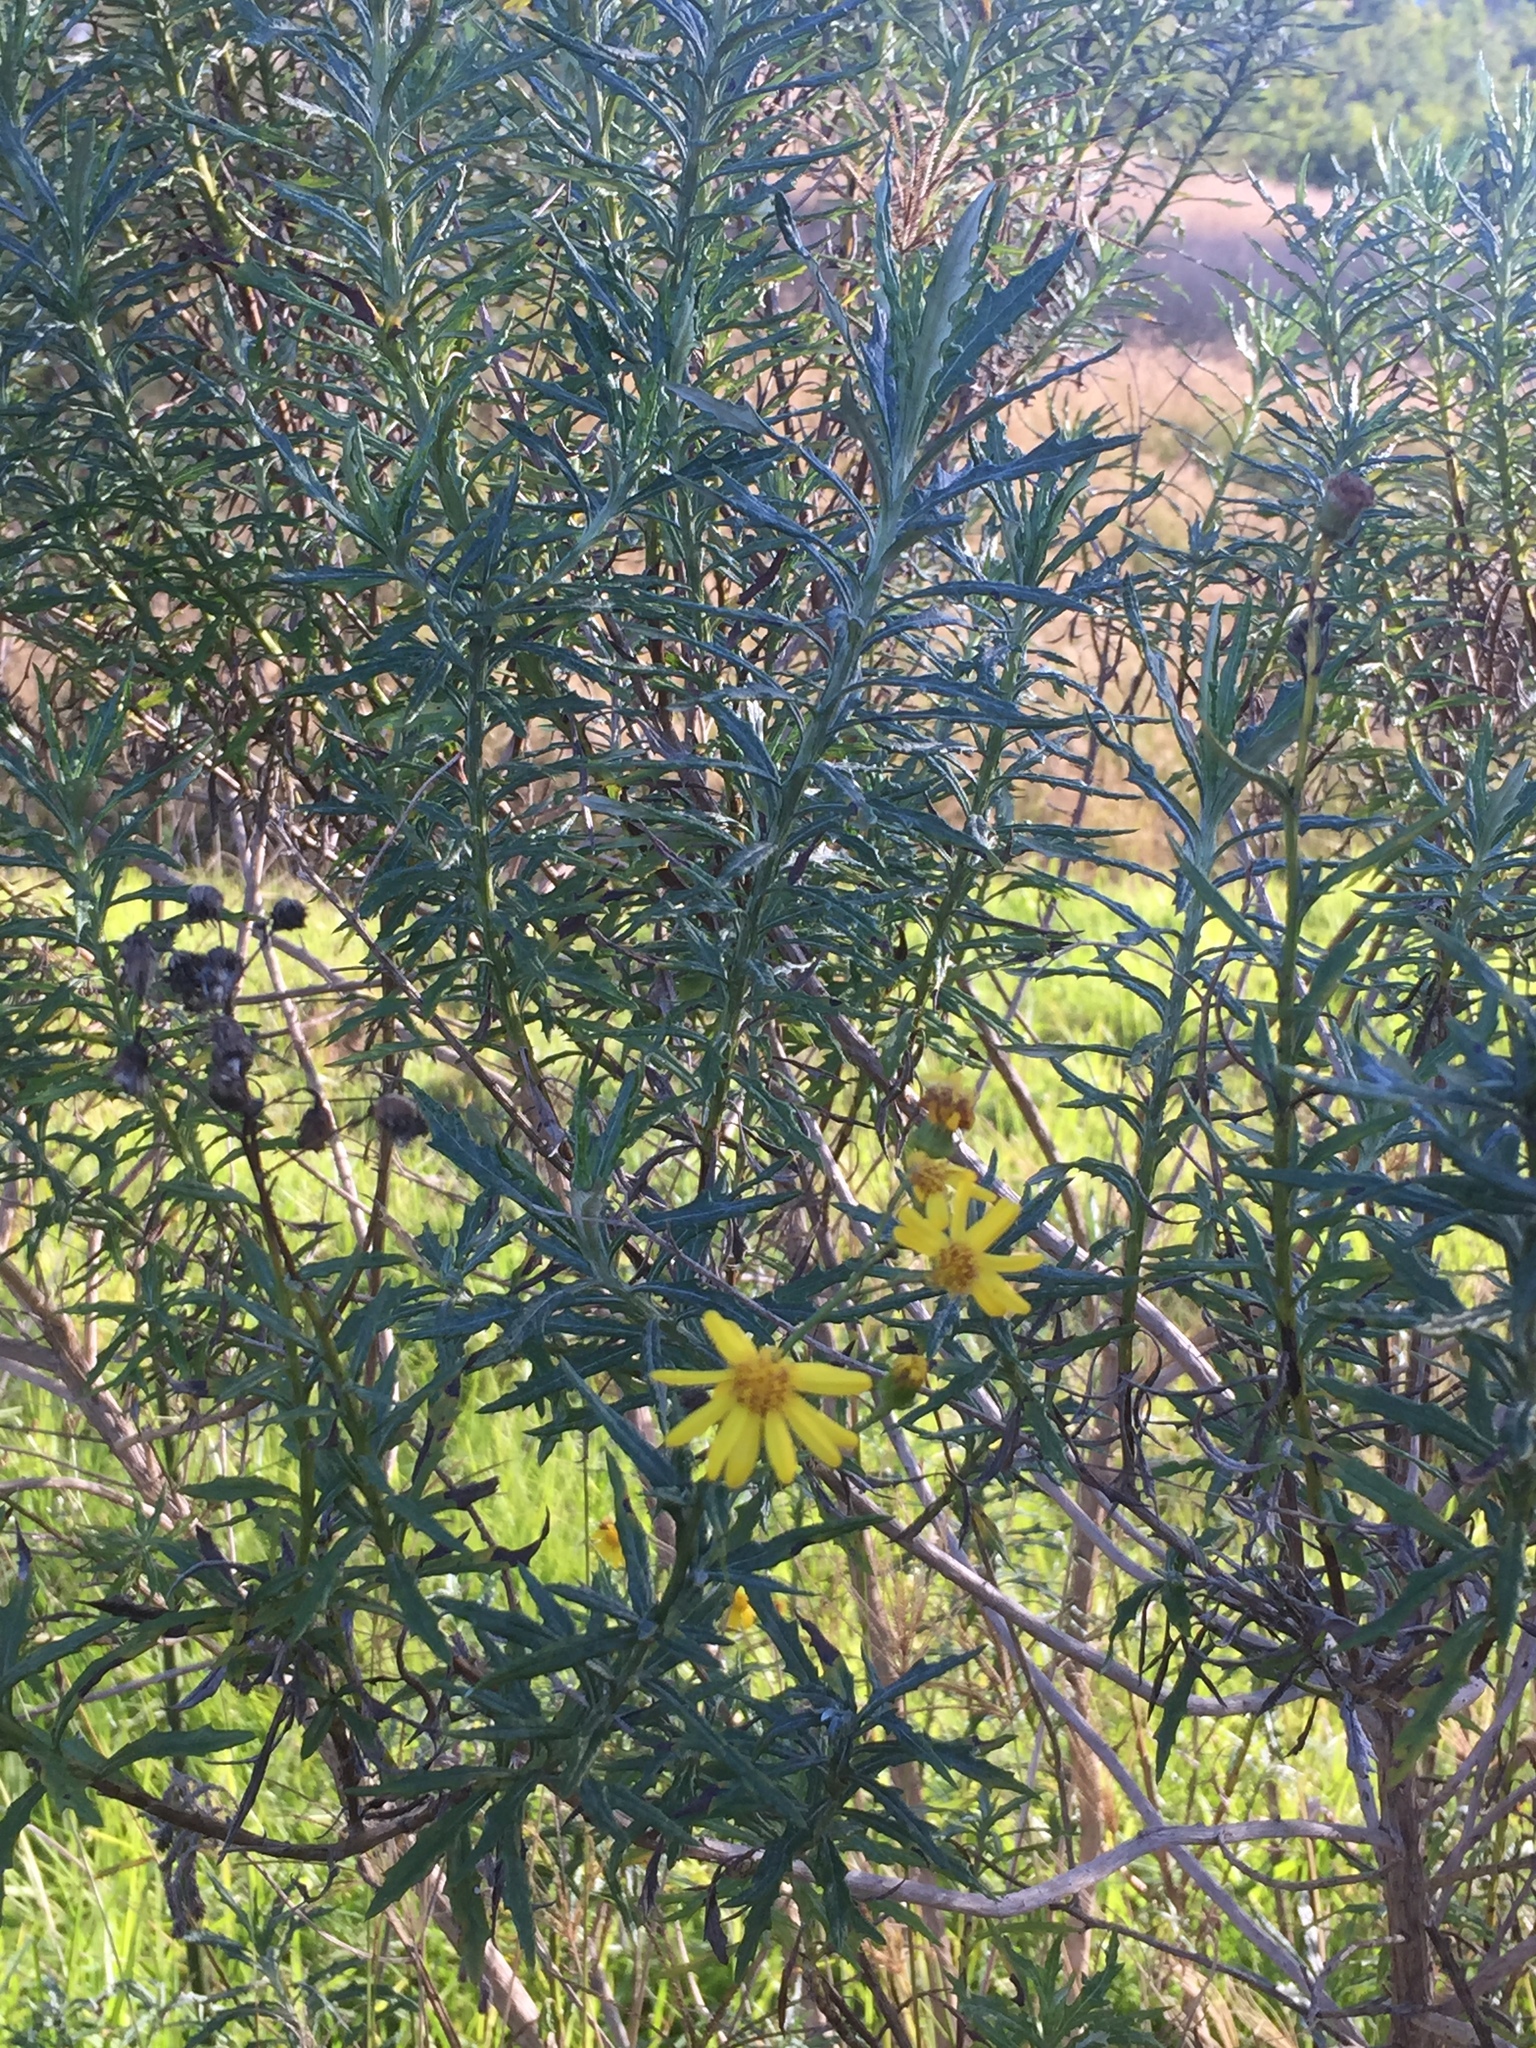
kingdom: Plantae
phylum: Tracheophyta
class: Magnoliopsida
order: Asterales
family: Asteraceae
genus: Senecio
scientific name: Senecio pterophorus
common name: Shoddy ragwort
